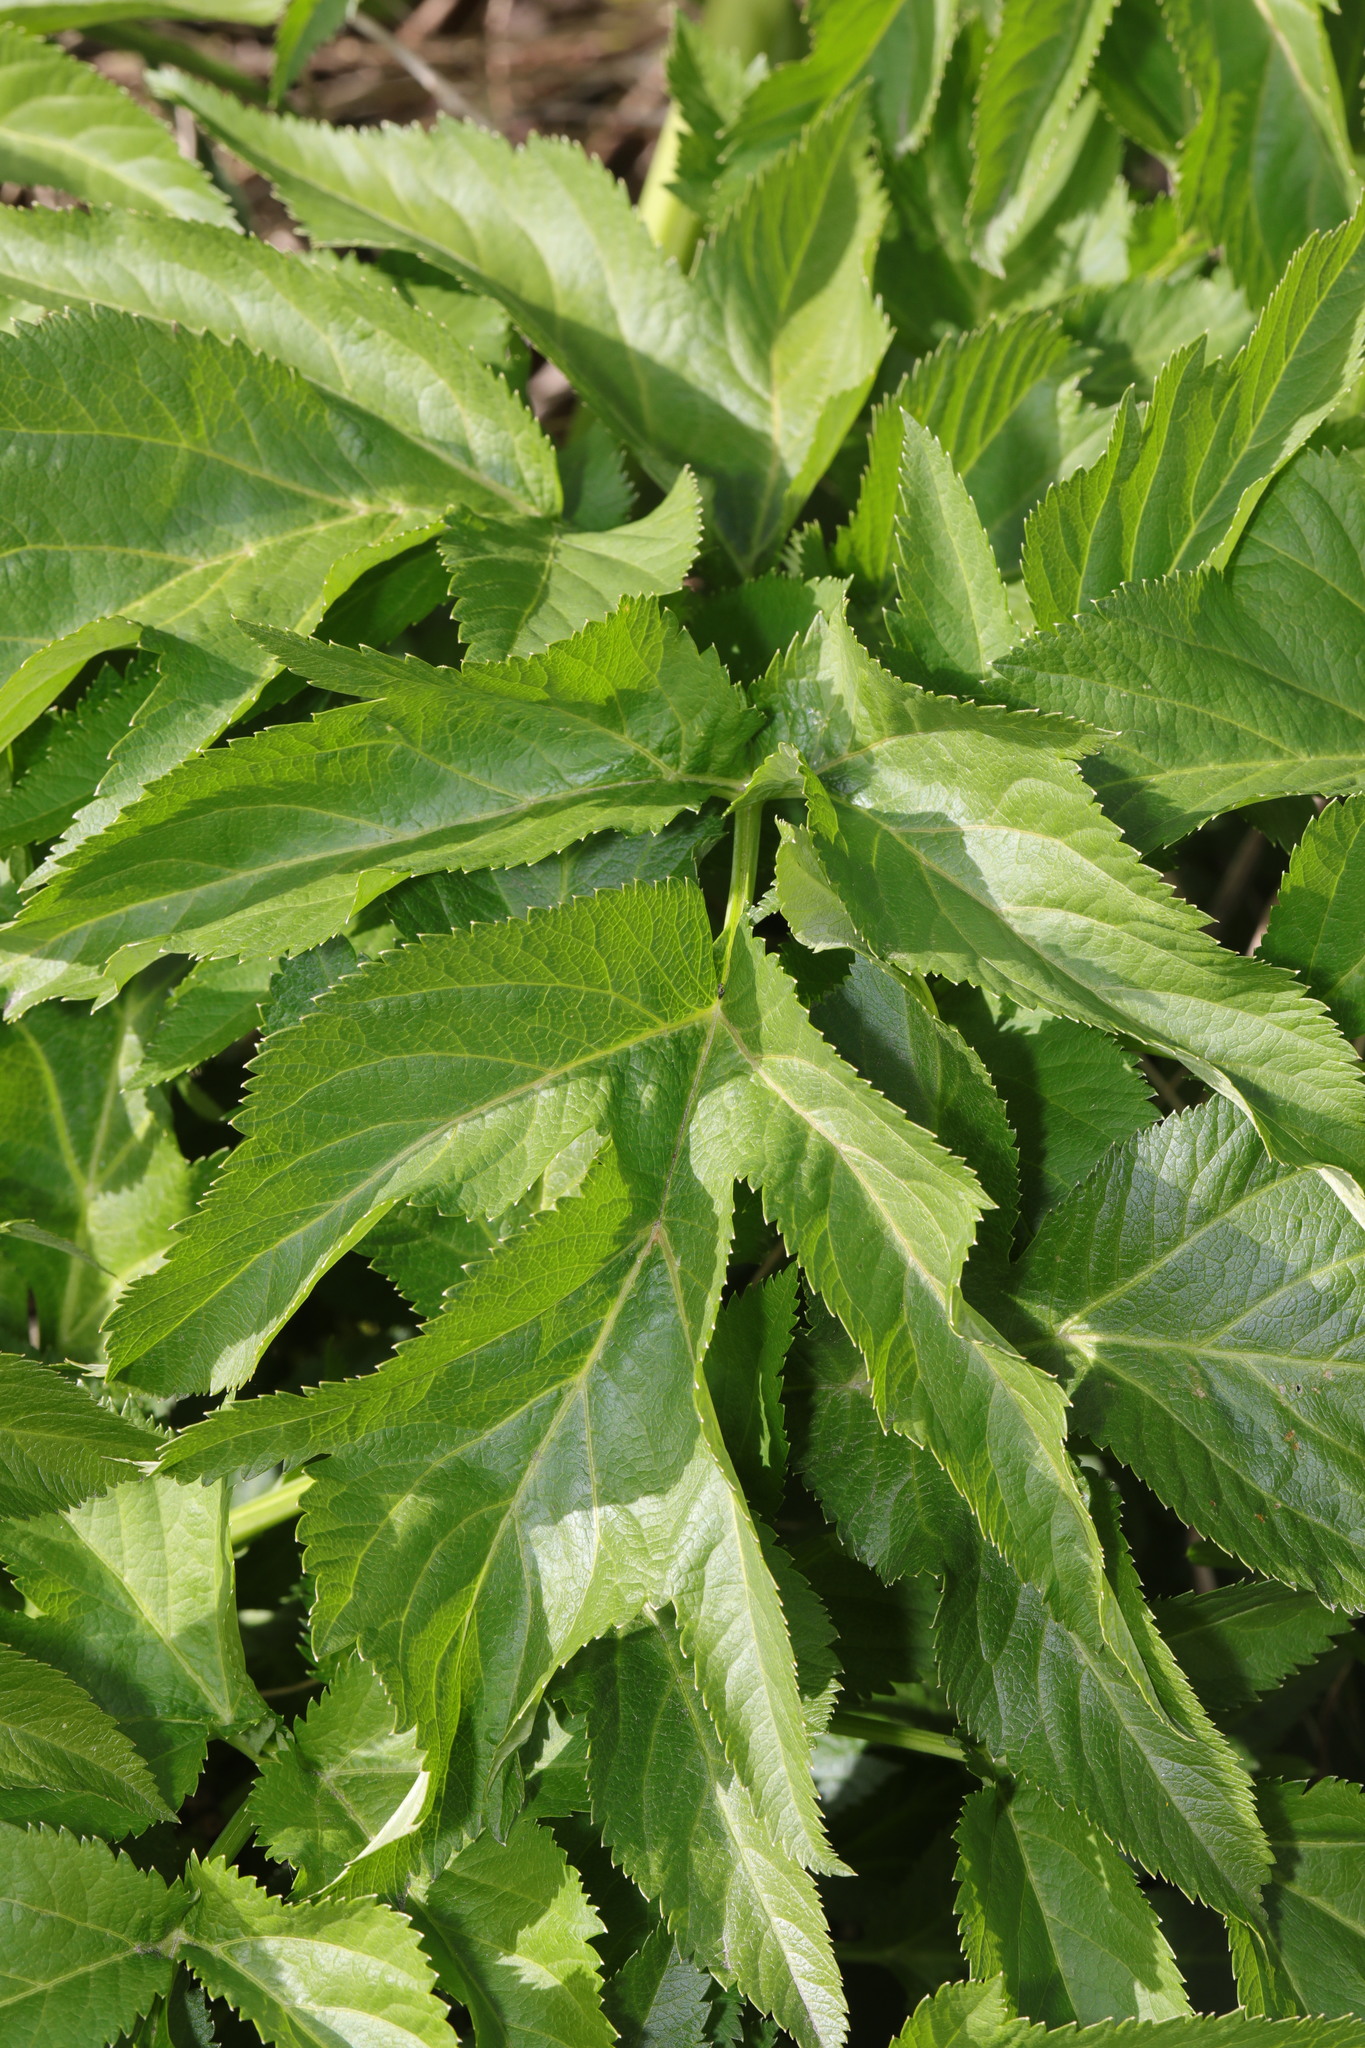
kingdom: Plantae
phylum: Tracheophyta
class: Magnoliopsida
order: Apiales
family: Apiaceae
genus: Angelica
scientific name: Angelica archangelica
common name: Garden angelica
